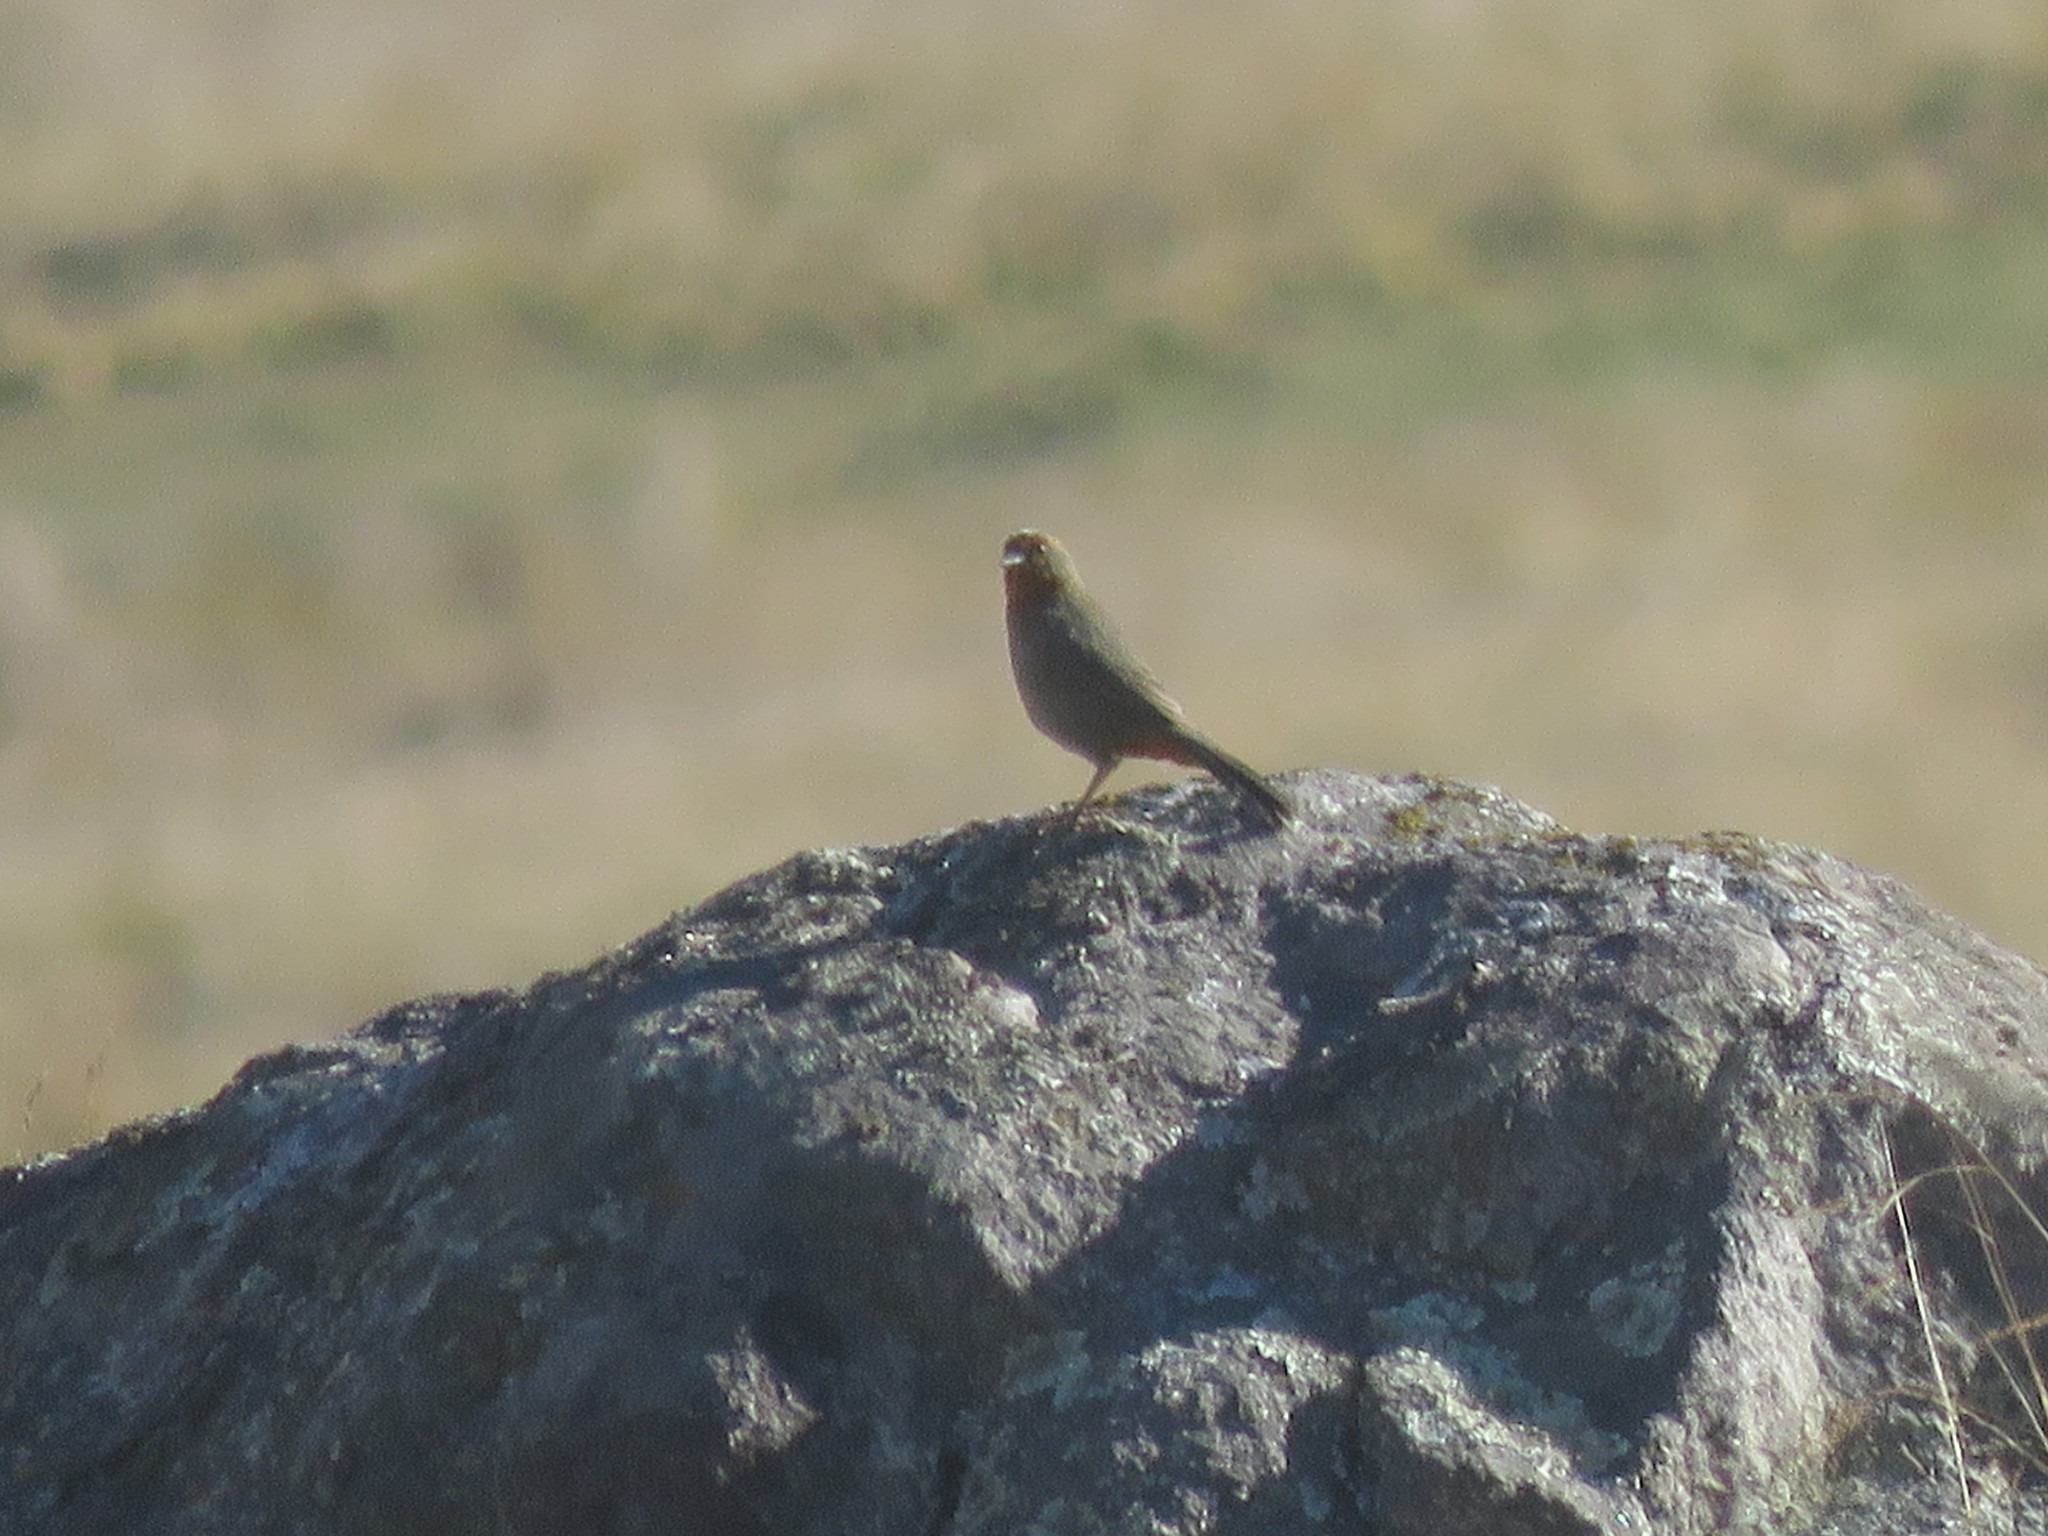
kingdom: Animalia
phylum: Chordata
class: Aves
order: Passeriformes
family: Thraupidae
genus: Poospiza
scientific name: Poospiza baeri
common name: Tucuman mountain-finch
